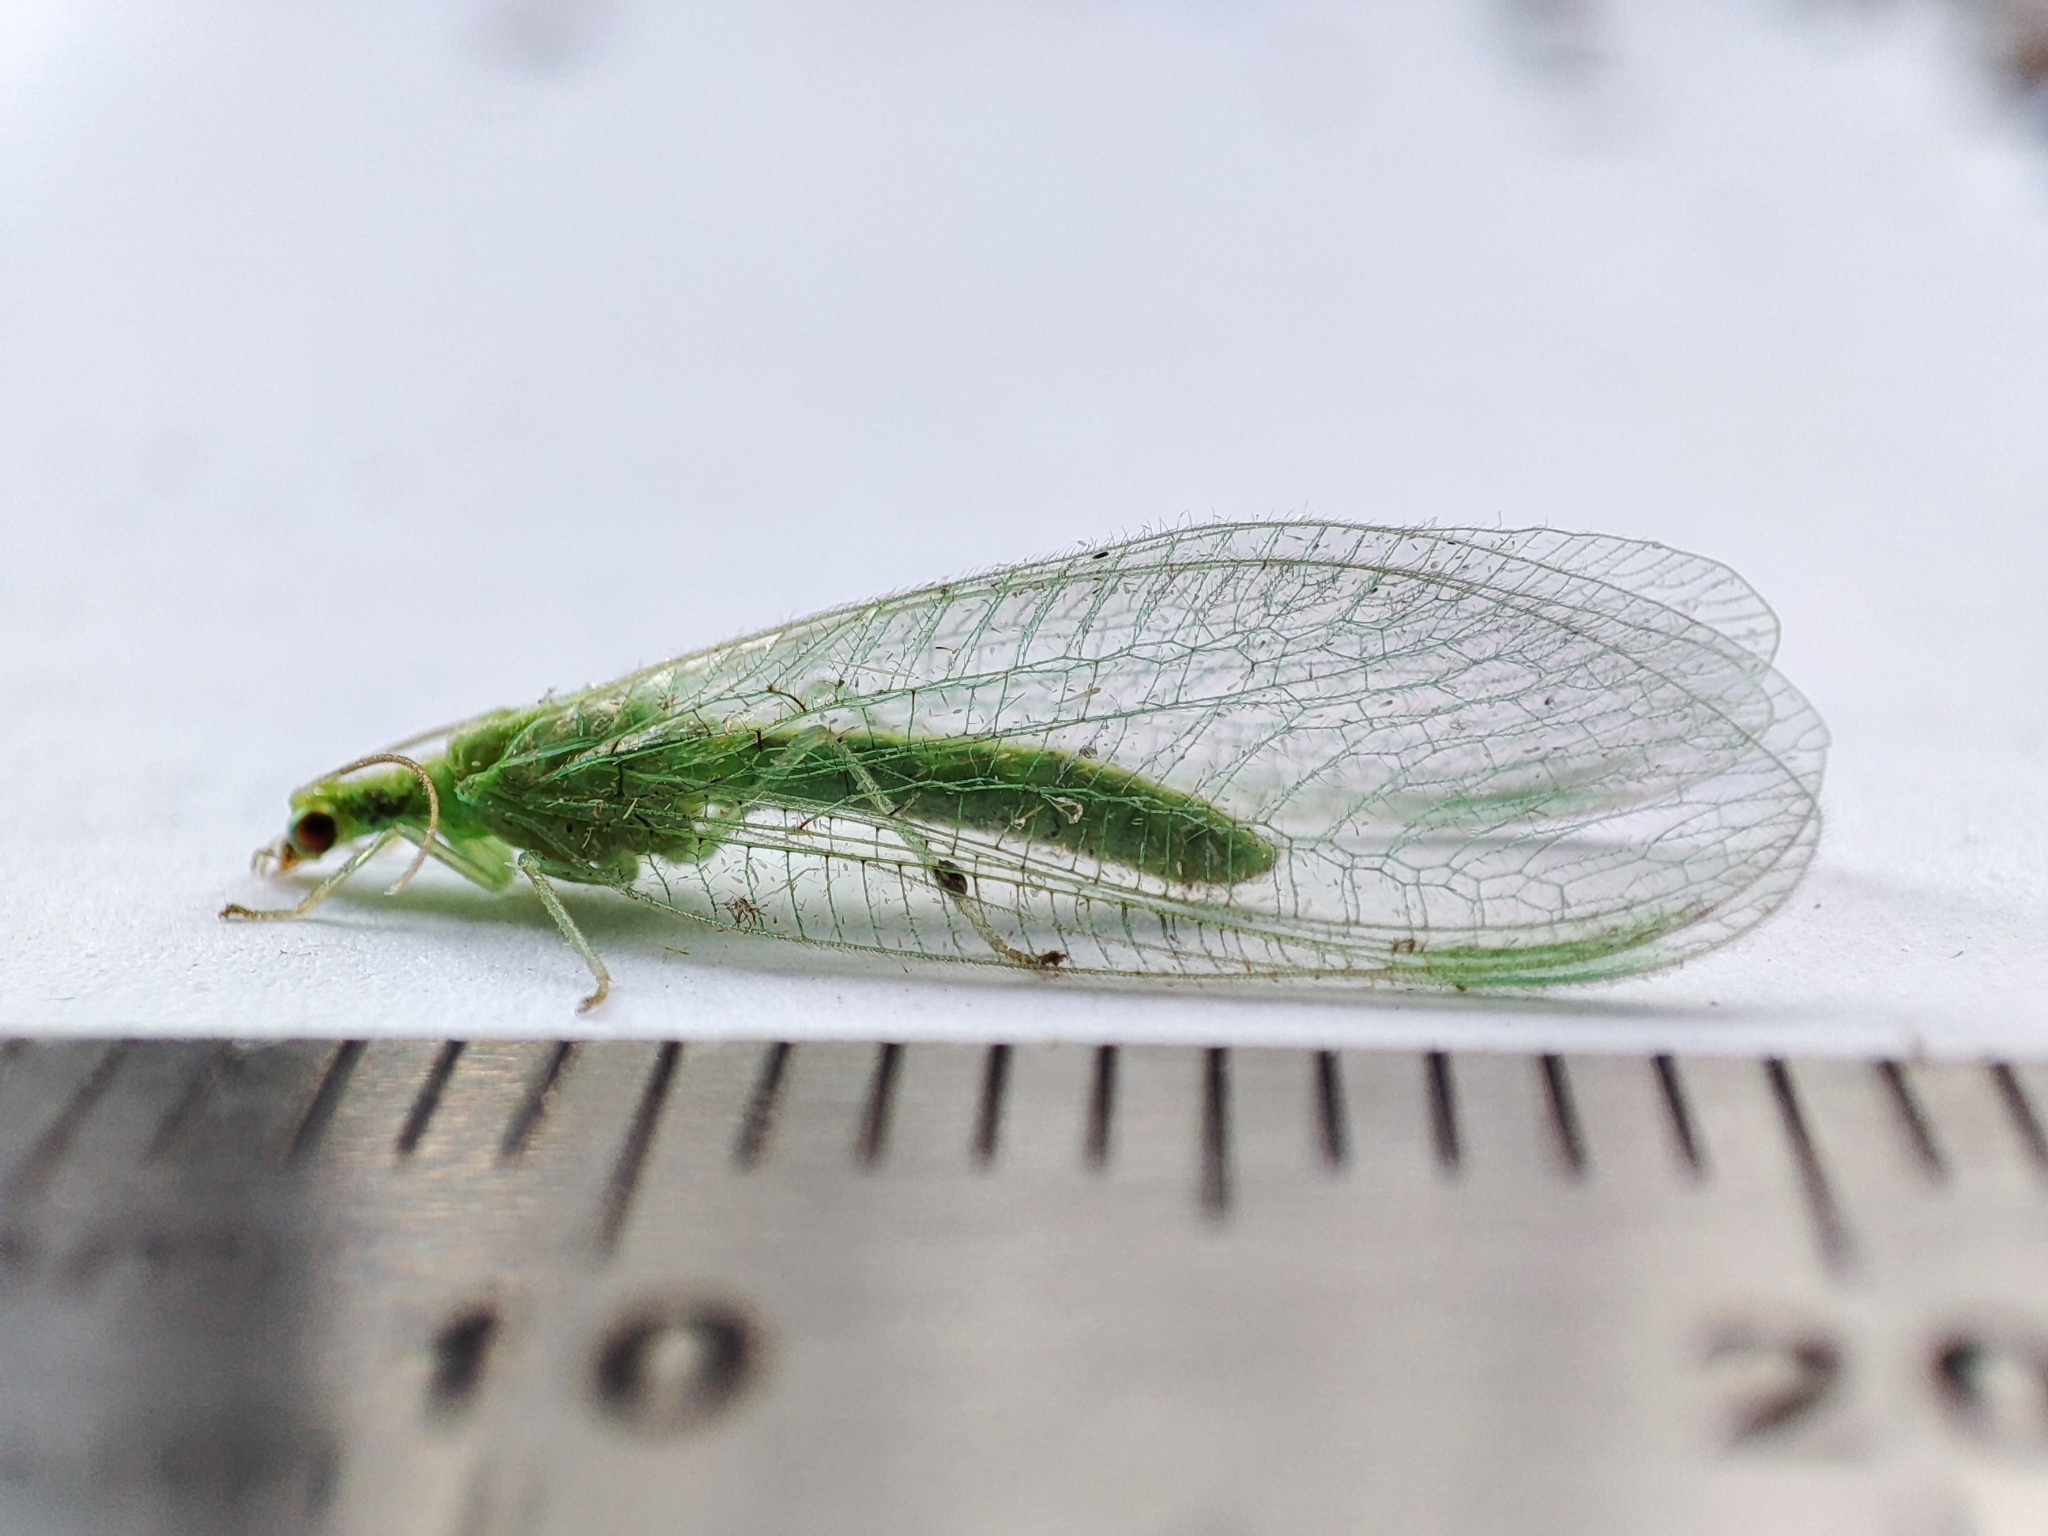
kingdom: Animalia
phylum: Arthropoda
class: Insecta
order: Neuroptera
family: Chrysopidae
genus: Chrysoperla
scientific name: Chrysoperla
